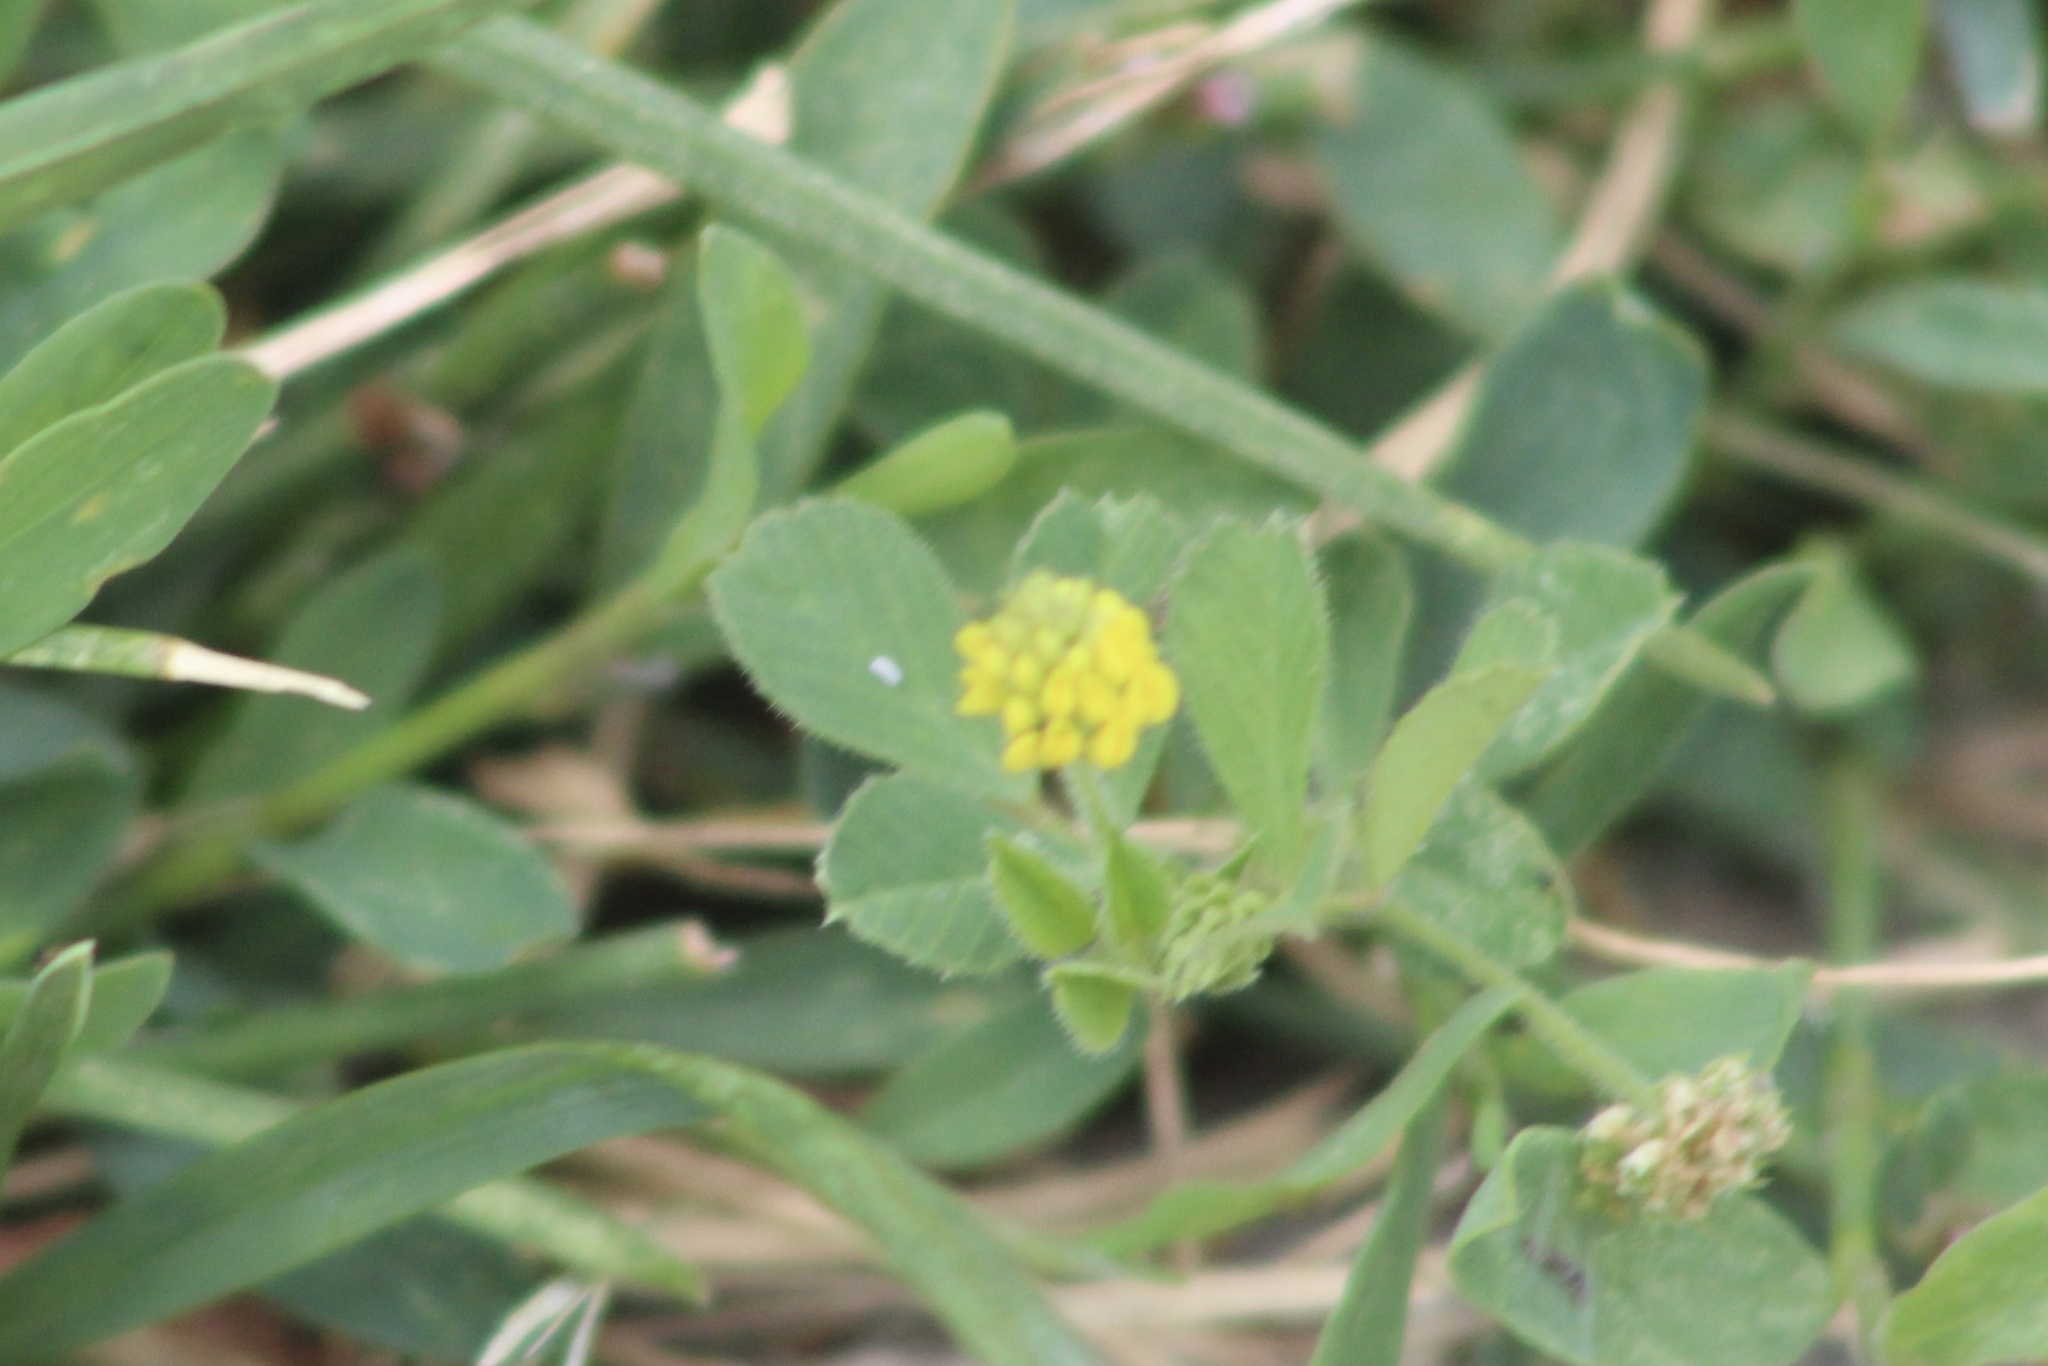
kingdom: Plantae
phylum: Tracheophyta
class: Magnoliopsida
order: Fabales
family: Fabaceae
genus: Medicago
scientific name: Medicago lupulina
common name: Black medick
